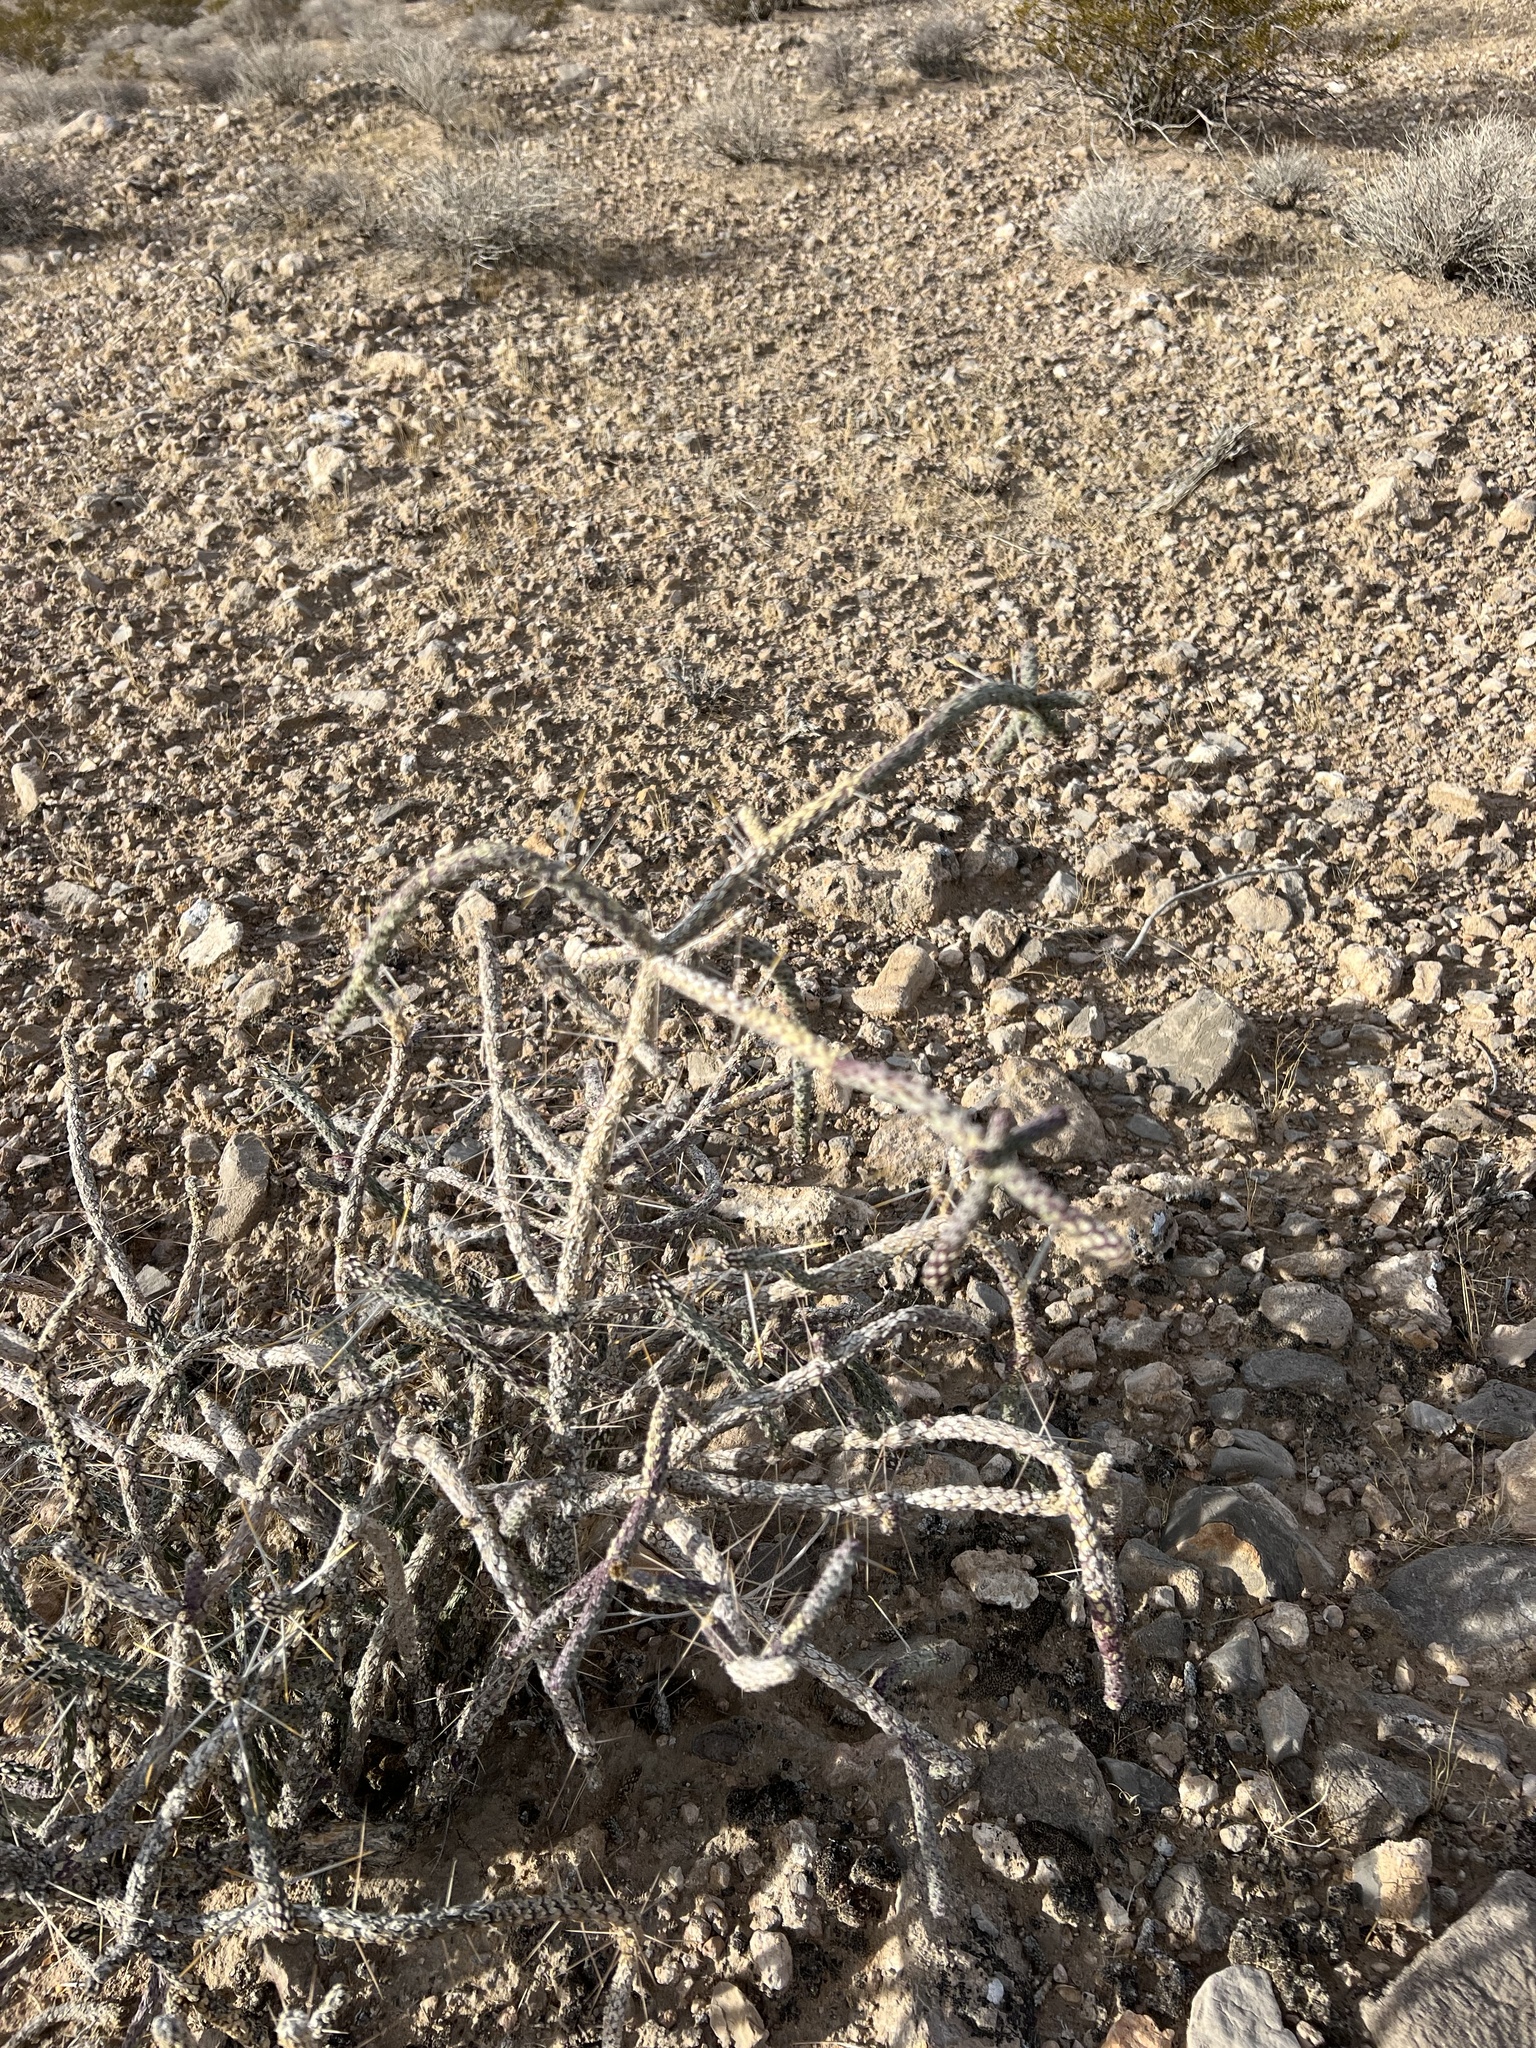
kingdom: Plantae
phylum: Tracheophyta
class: Magnoliopsida
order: Caryophyllales
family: Cactaceae
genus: Cylindropuntia
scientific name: Cylindropuntia ramosissima
